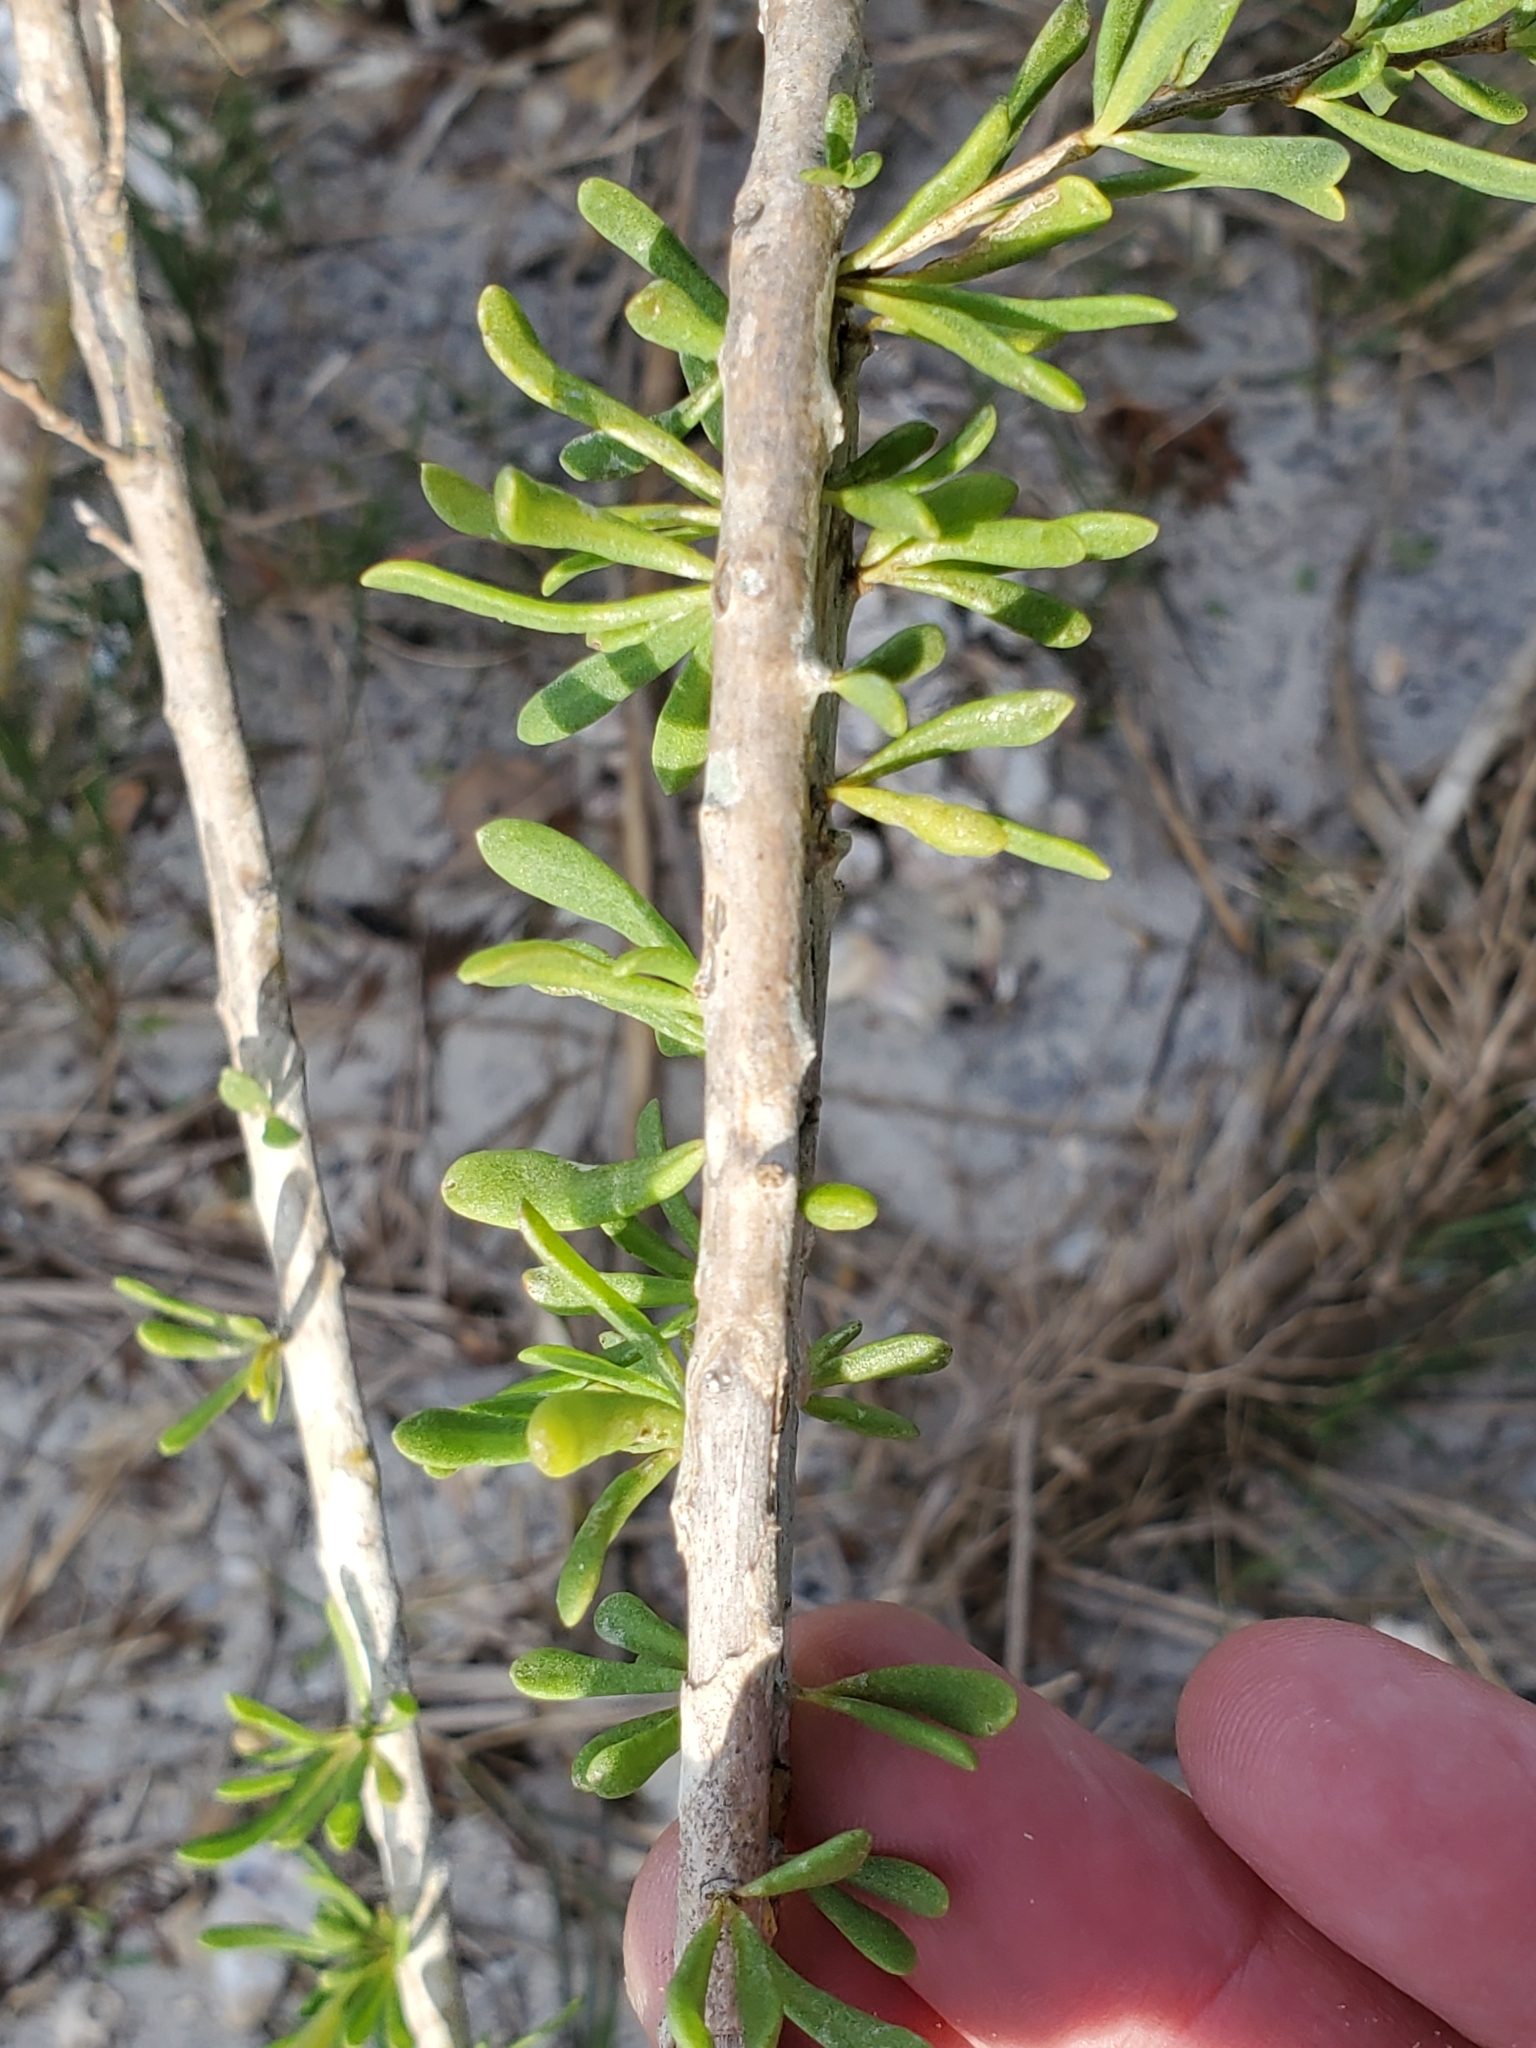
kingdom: Plantae
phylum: Tracheophyta
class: Magnoliopsida
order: Solanales
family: Solanaceae
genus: Lycium
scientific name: Lycium carolinianum
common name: Christmasberry
